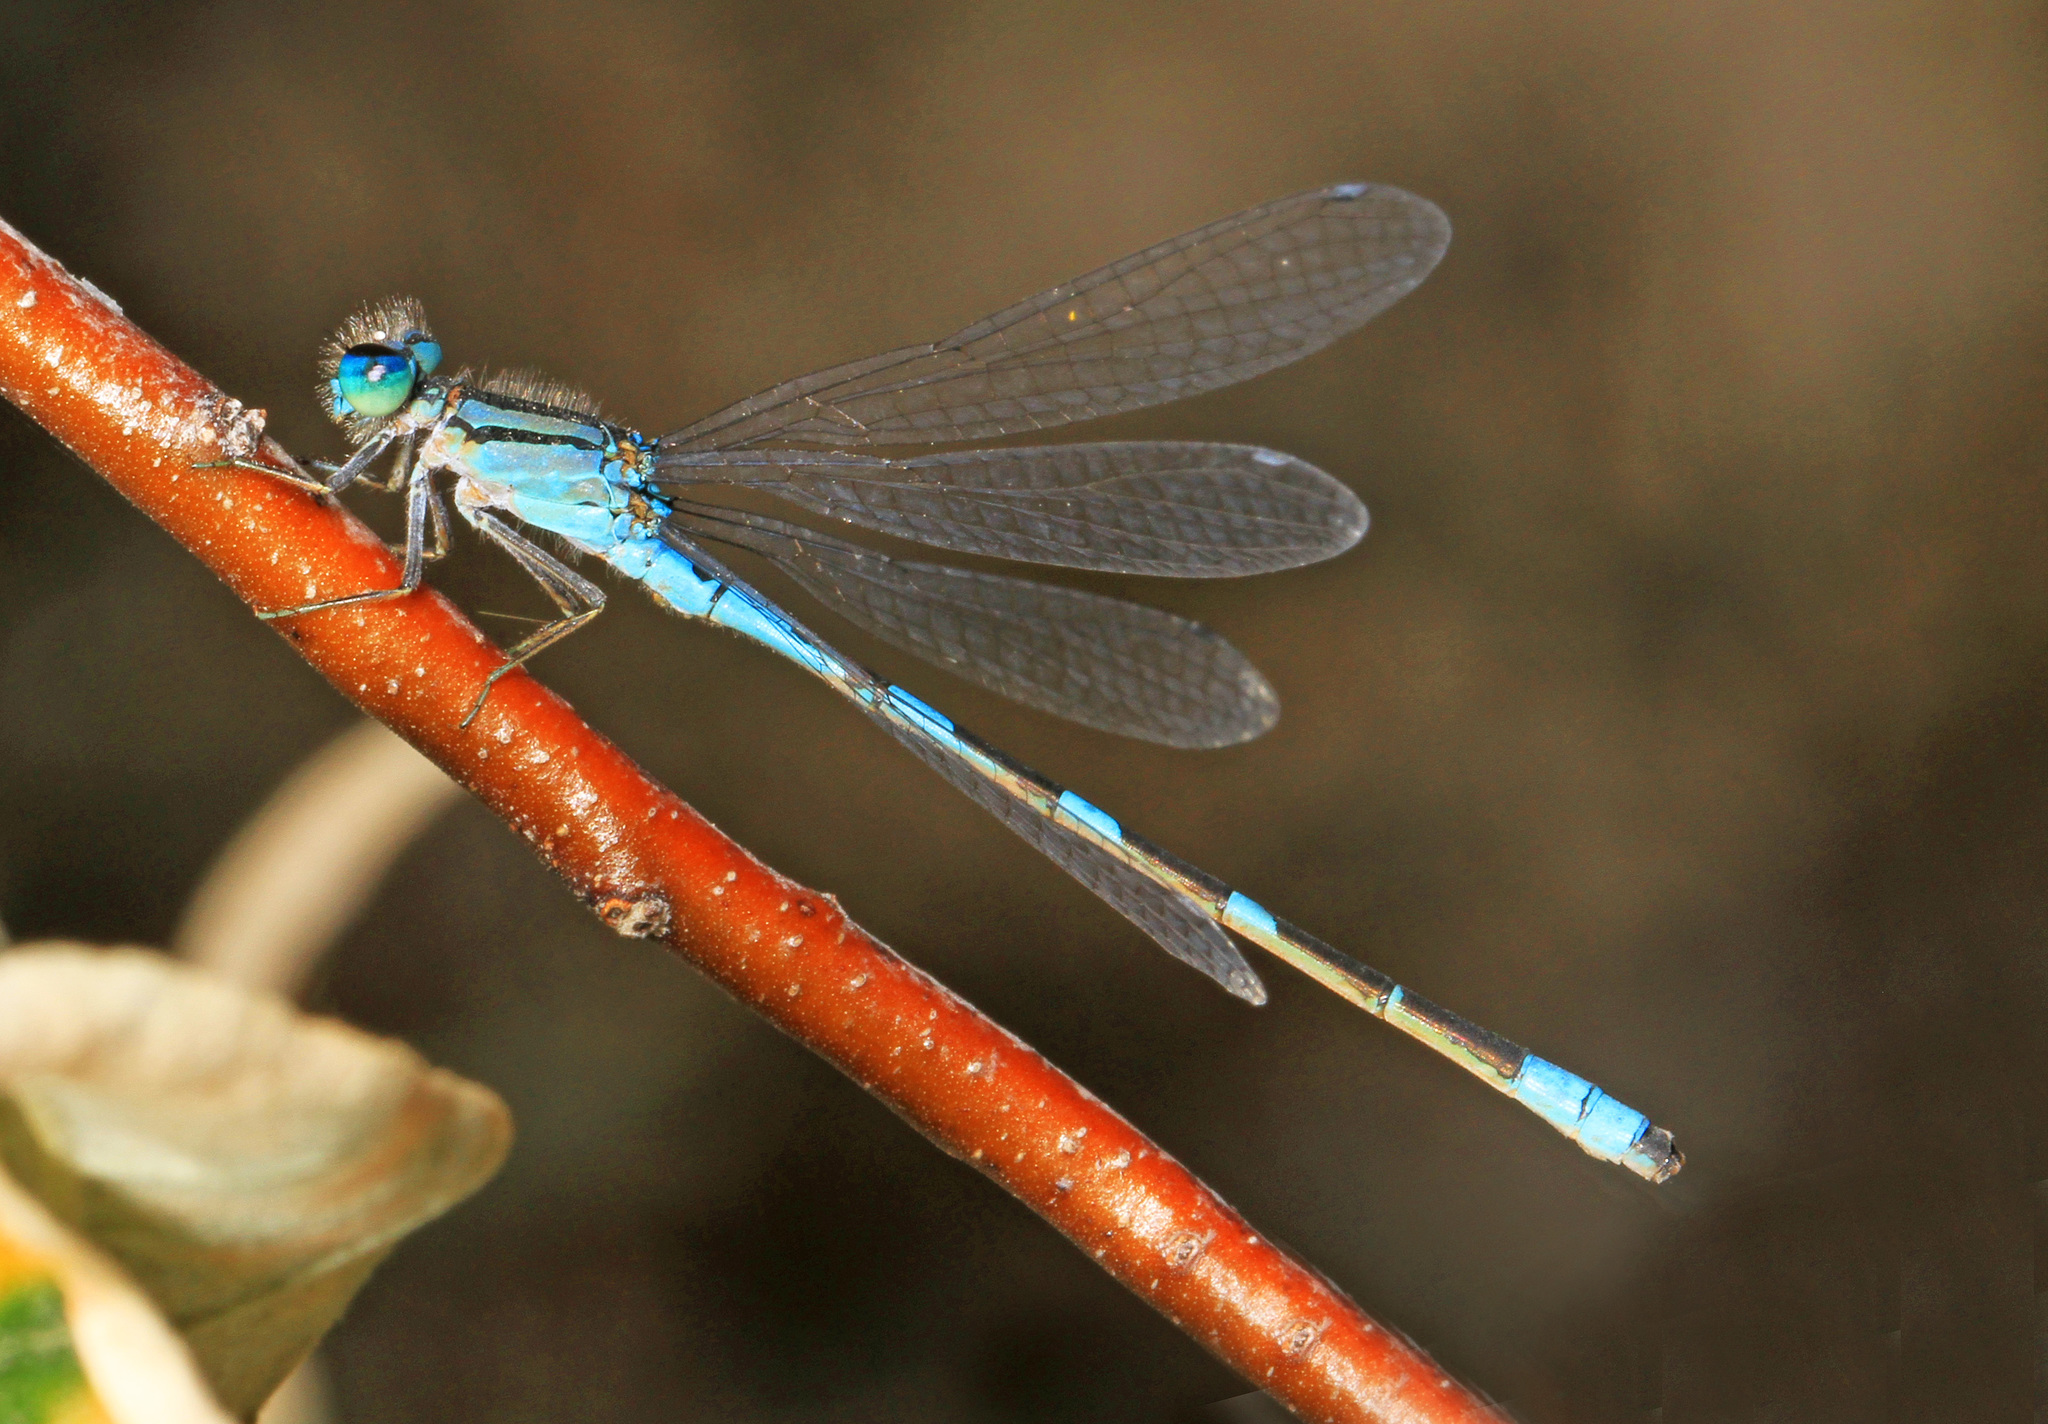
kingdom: Animalia
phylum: Arthropoda
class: Insecta
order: Odonata
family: Coenagrionidae
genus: Enallagma
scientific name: Enallagma carunculatum
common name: Tule bluet
